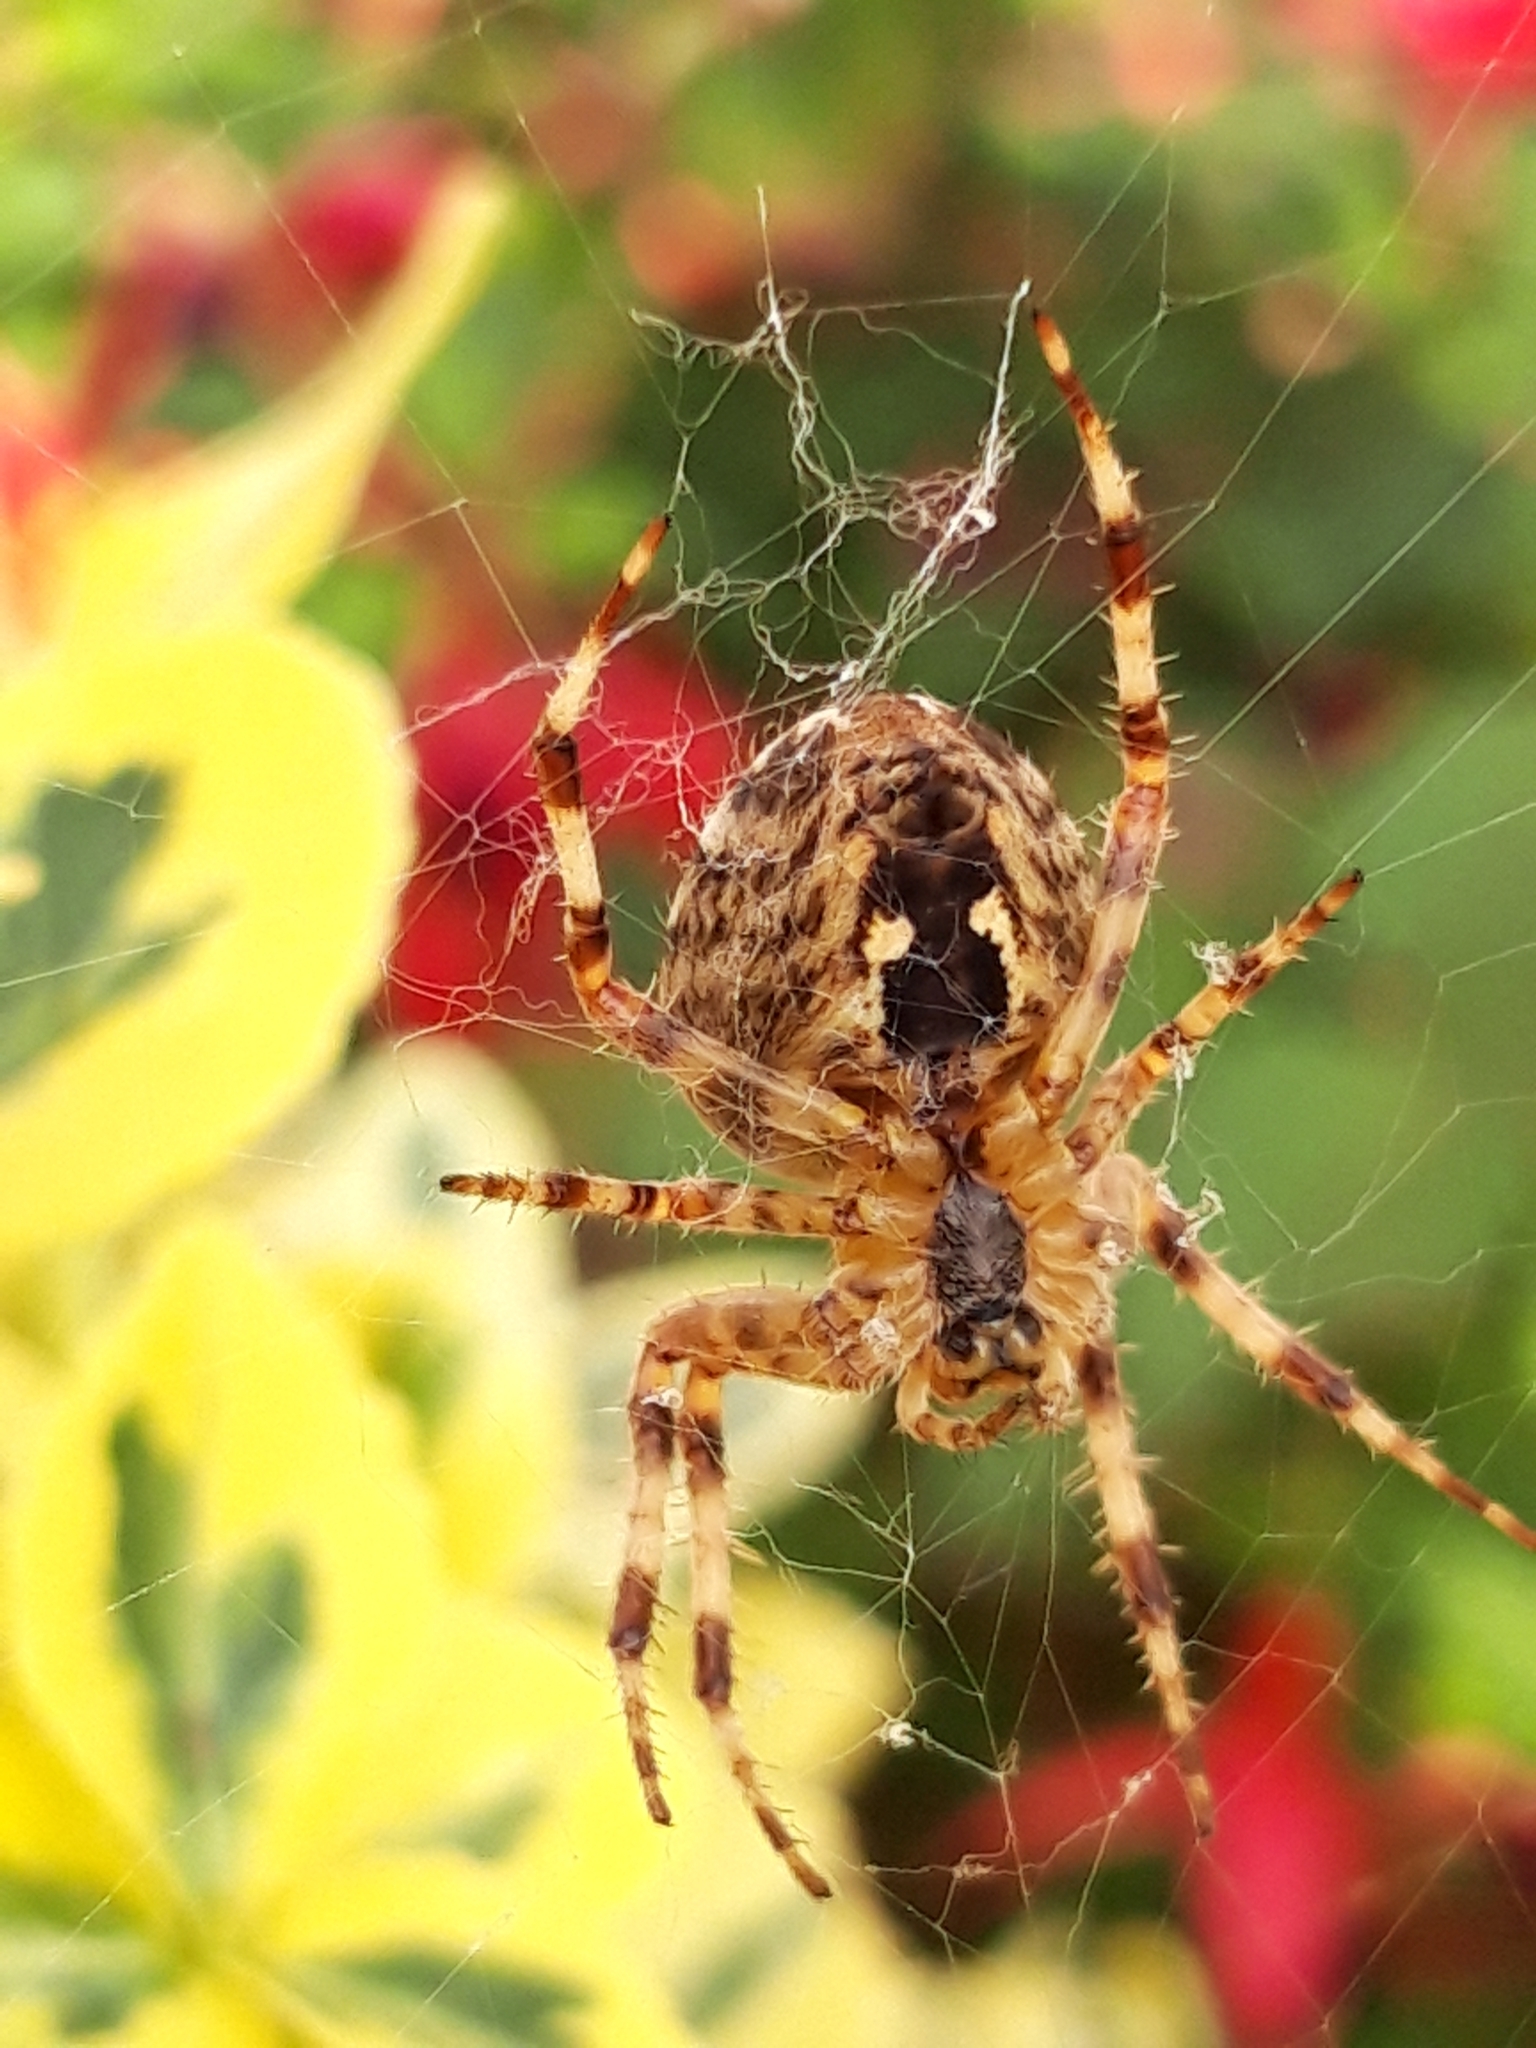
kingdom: Animalia
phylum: Arthropoda
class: Arachnida
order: Araneae
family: Araneidae
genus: Araneus
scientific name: Araneus diadematus
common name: Cross orbweaver
